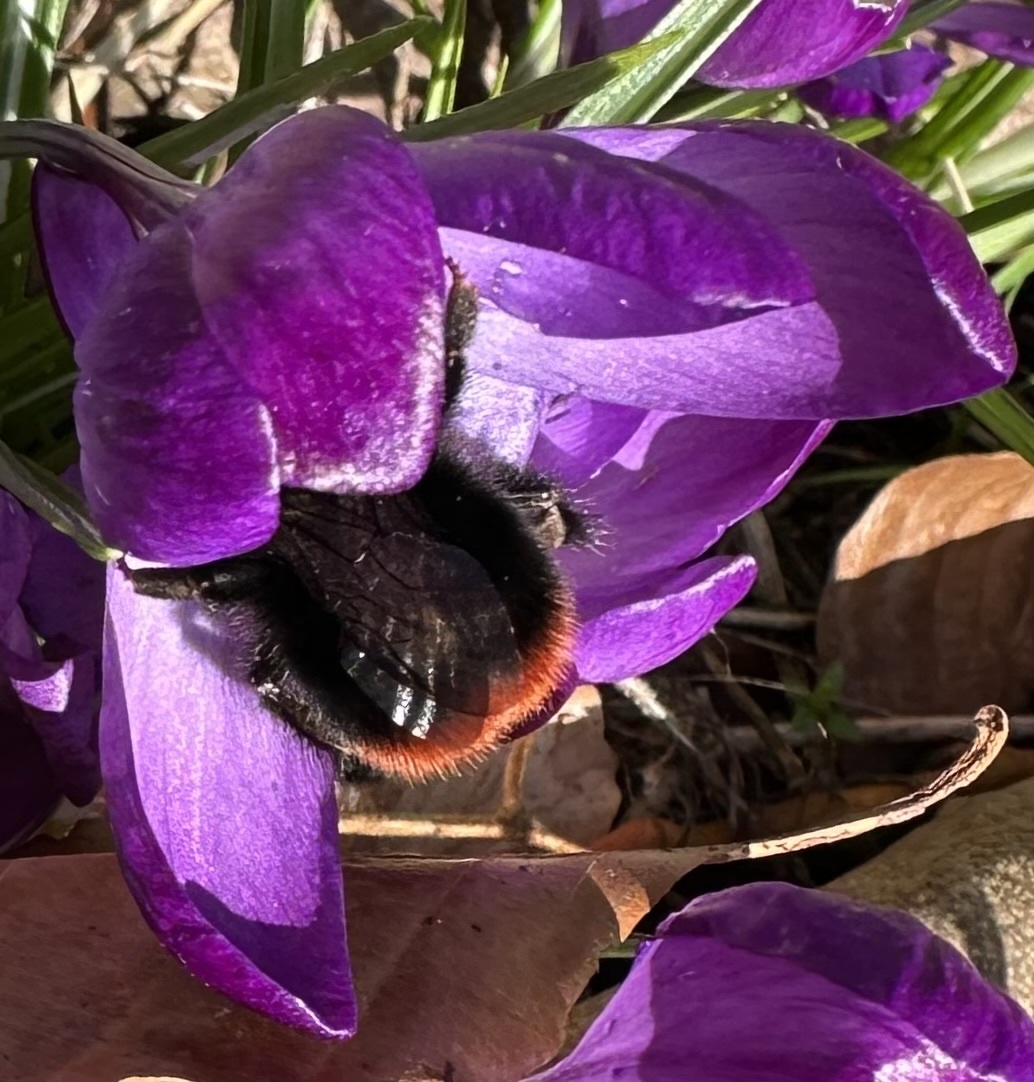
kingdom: Animalia
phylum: Arthropoda
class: Insecta
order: Hymenoptera
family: Apidae
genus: Bombus
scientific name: Bombus lapidarius
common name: Large red-tailed humble-bee
